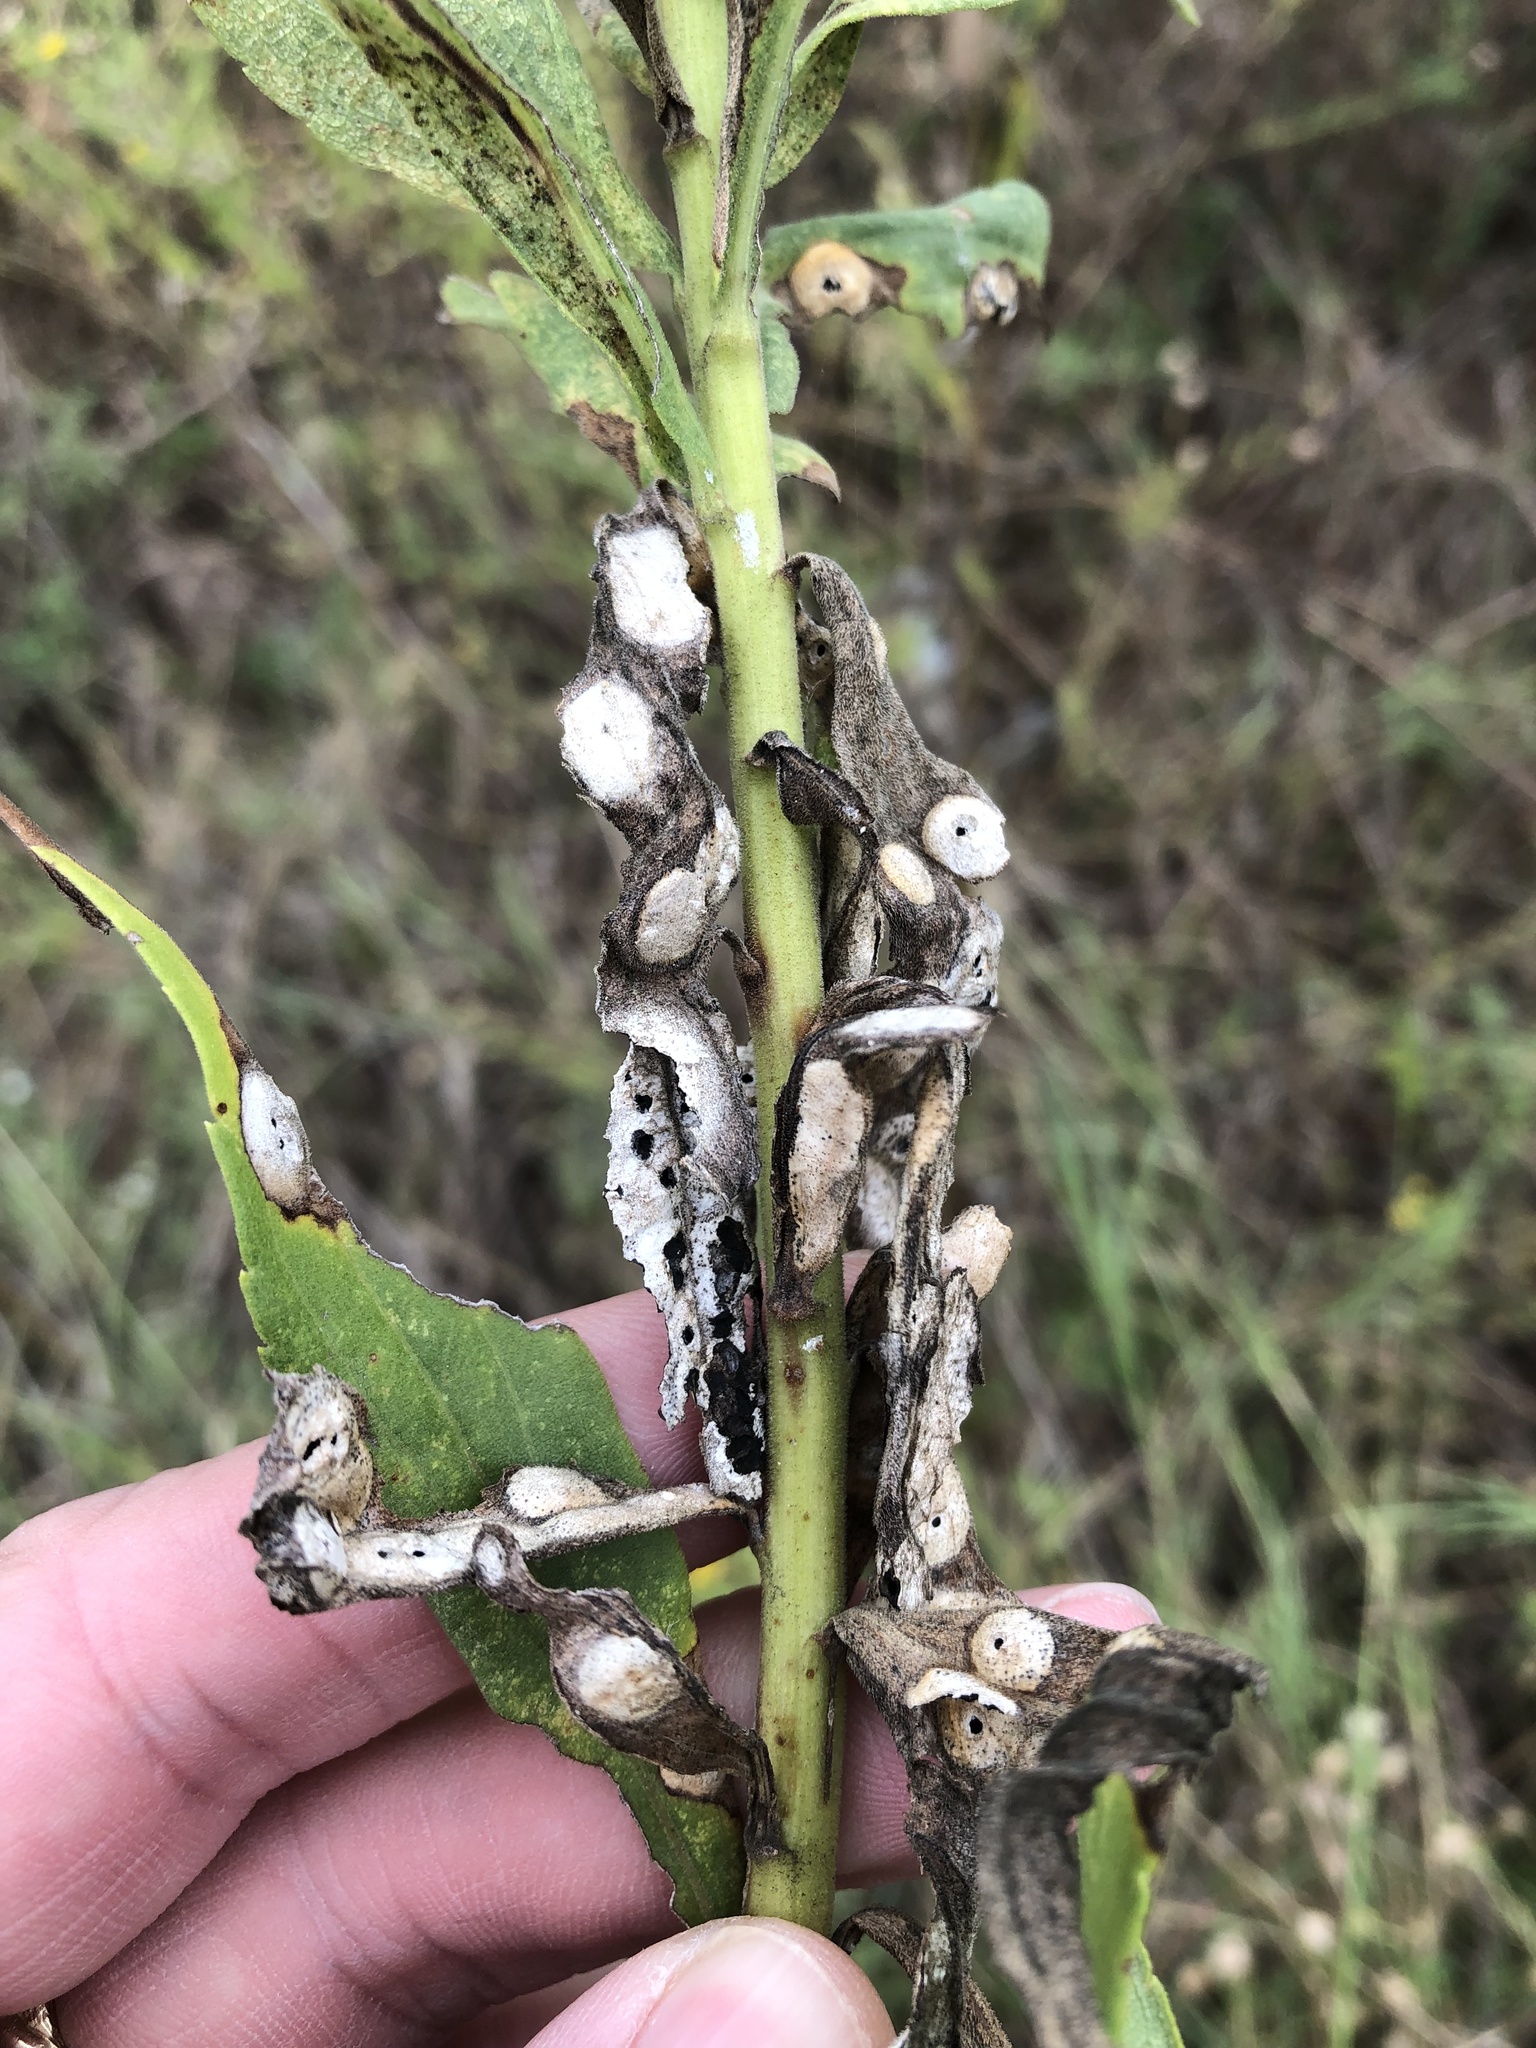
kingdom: Animalia
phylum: Arthropoda
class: Insecta
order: Diptera
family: Cecidomyiidae
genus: Asteromyia
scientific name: Asteromyia carbonifera
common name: Carbonifera goldenrod gall midge
